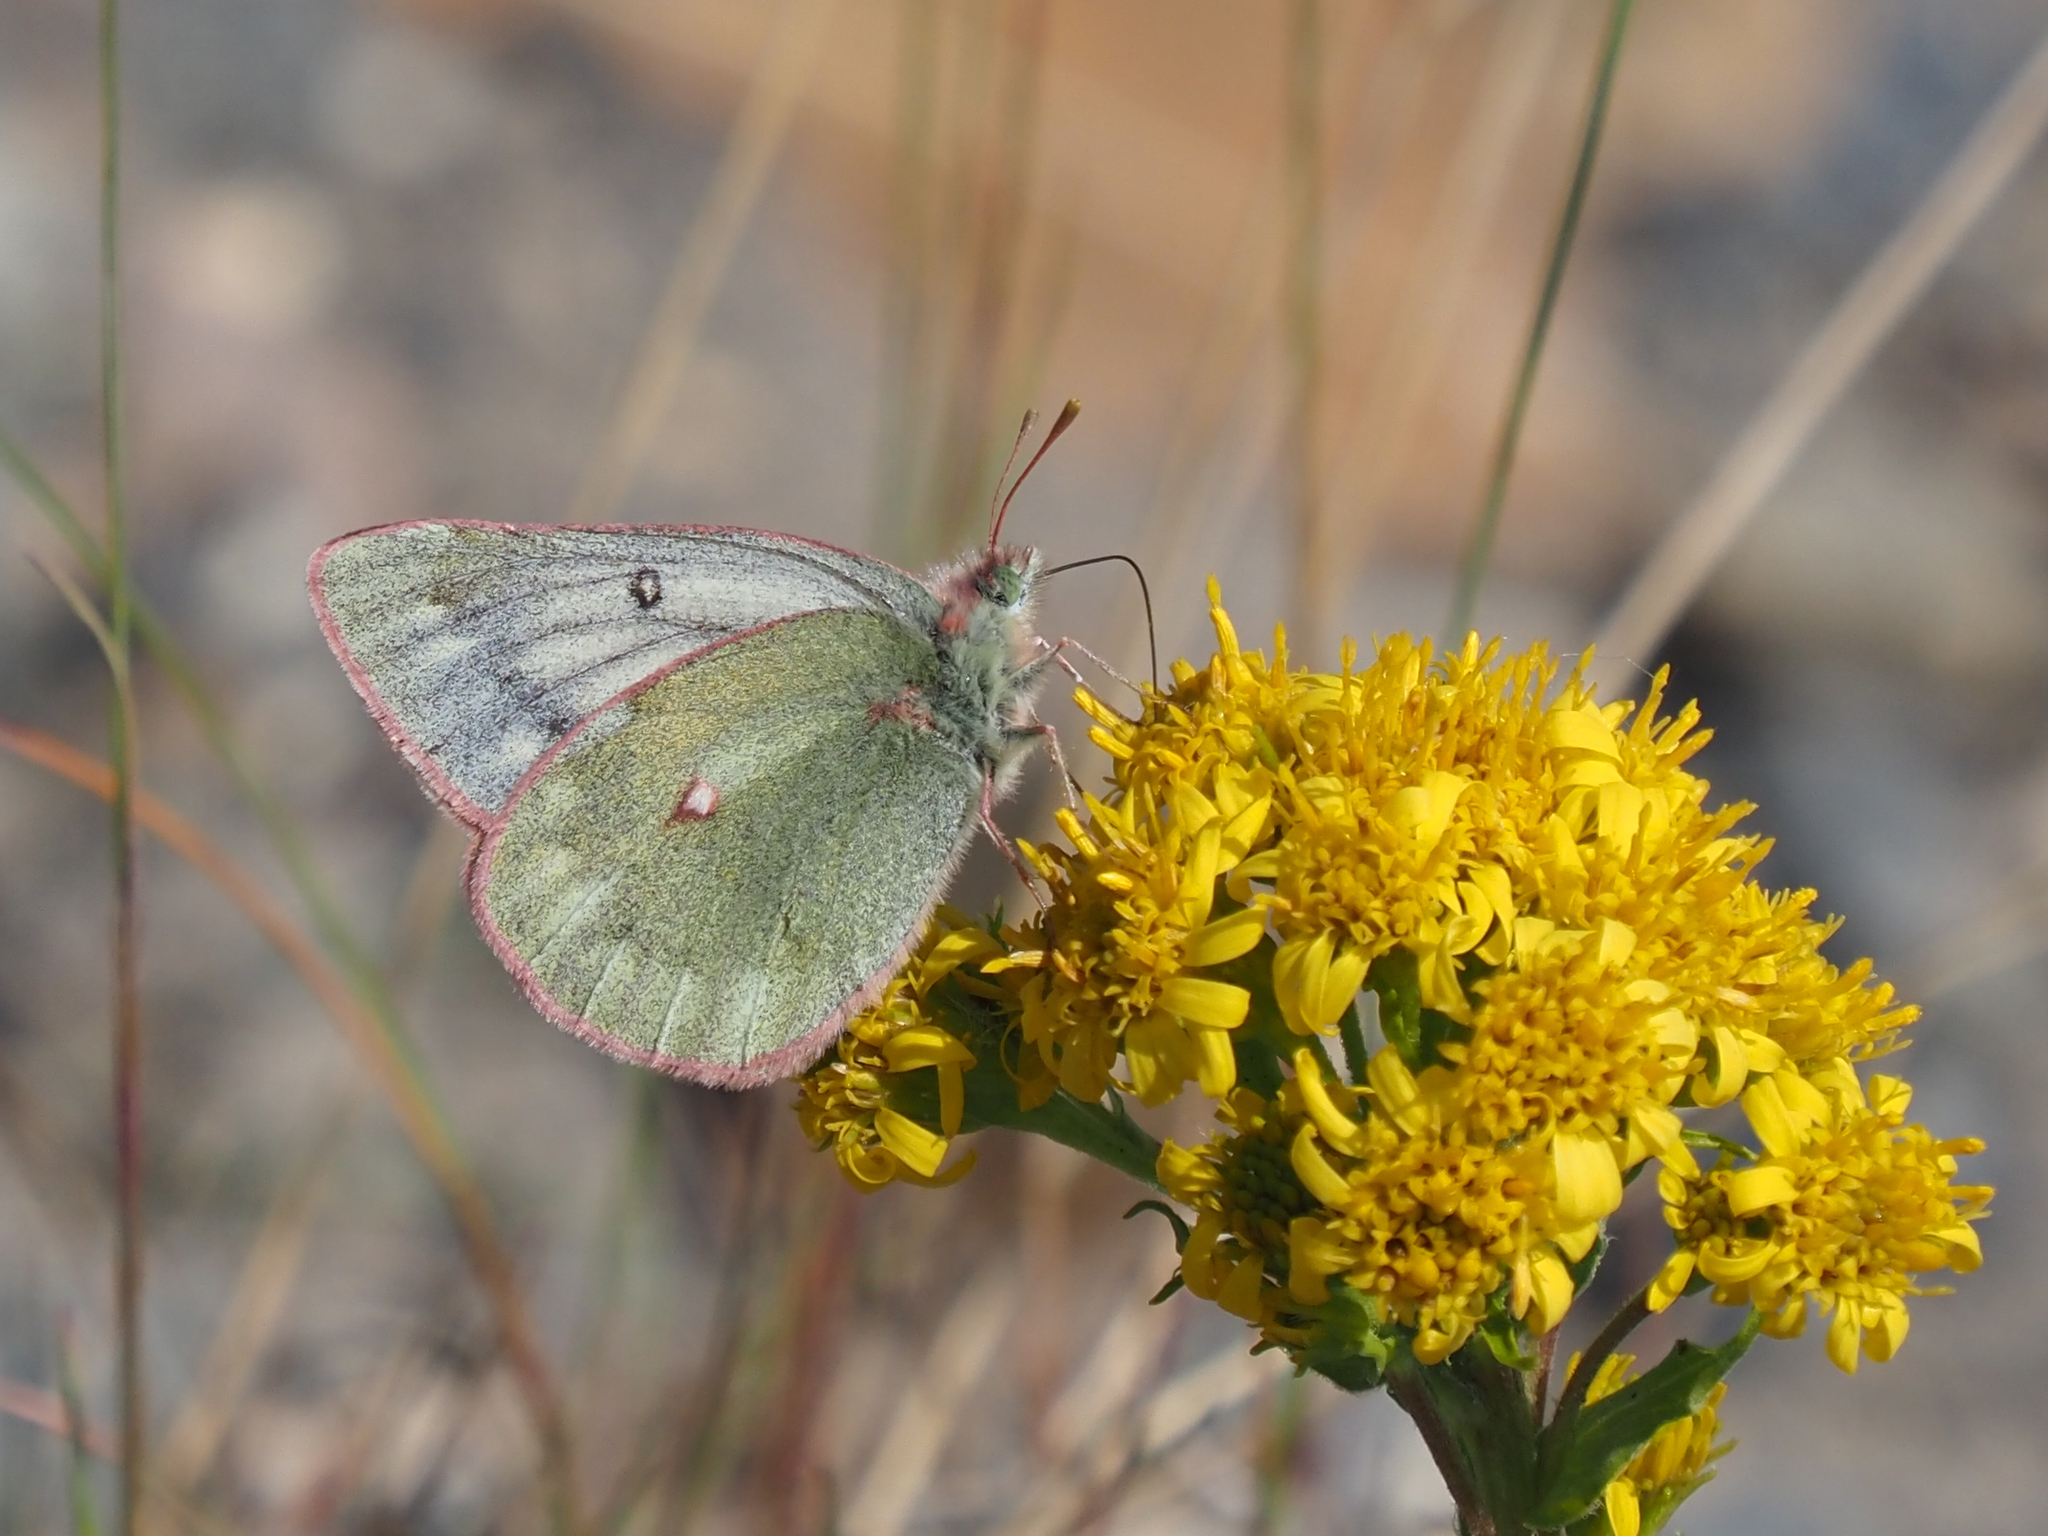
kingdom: Animalia
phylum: Arthropoda
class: Insecta
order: Lepidoptera
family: Pieridae
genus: Colias
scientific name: Colias nastes
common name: Labrador sulphur
